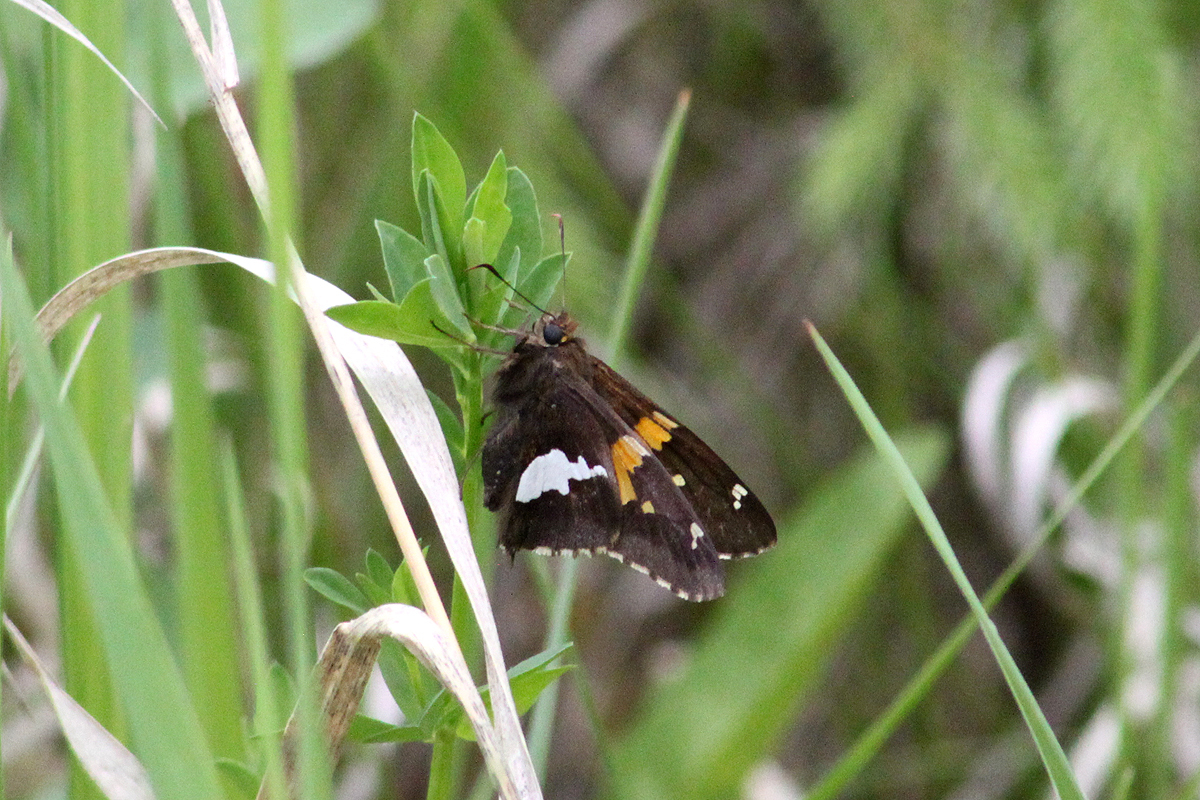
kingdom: Animalia
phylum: Arthropoda
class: Insecta
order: Lepidoptera
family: Hesperiidae
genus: Epargyreus
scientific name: Epargyreus clarus
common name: Silver-spotted skipper
